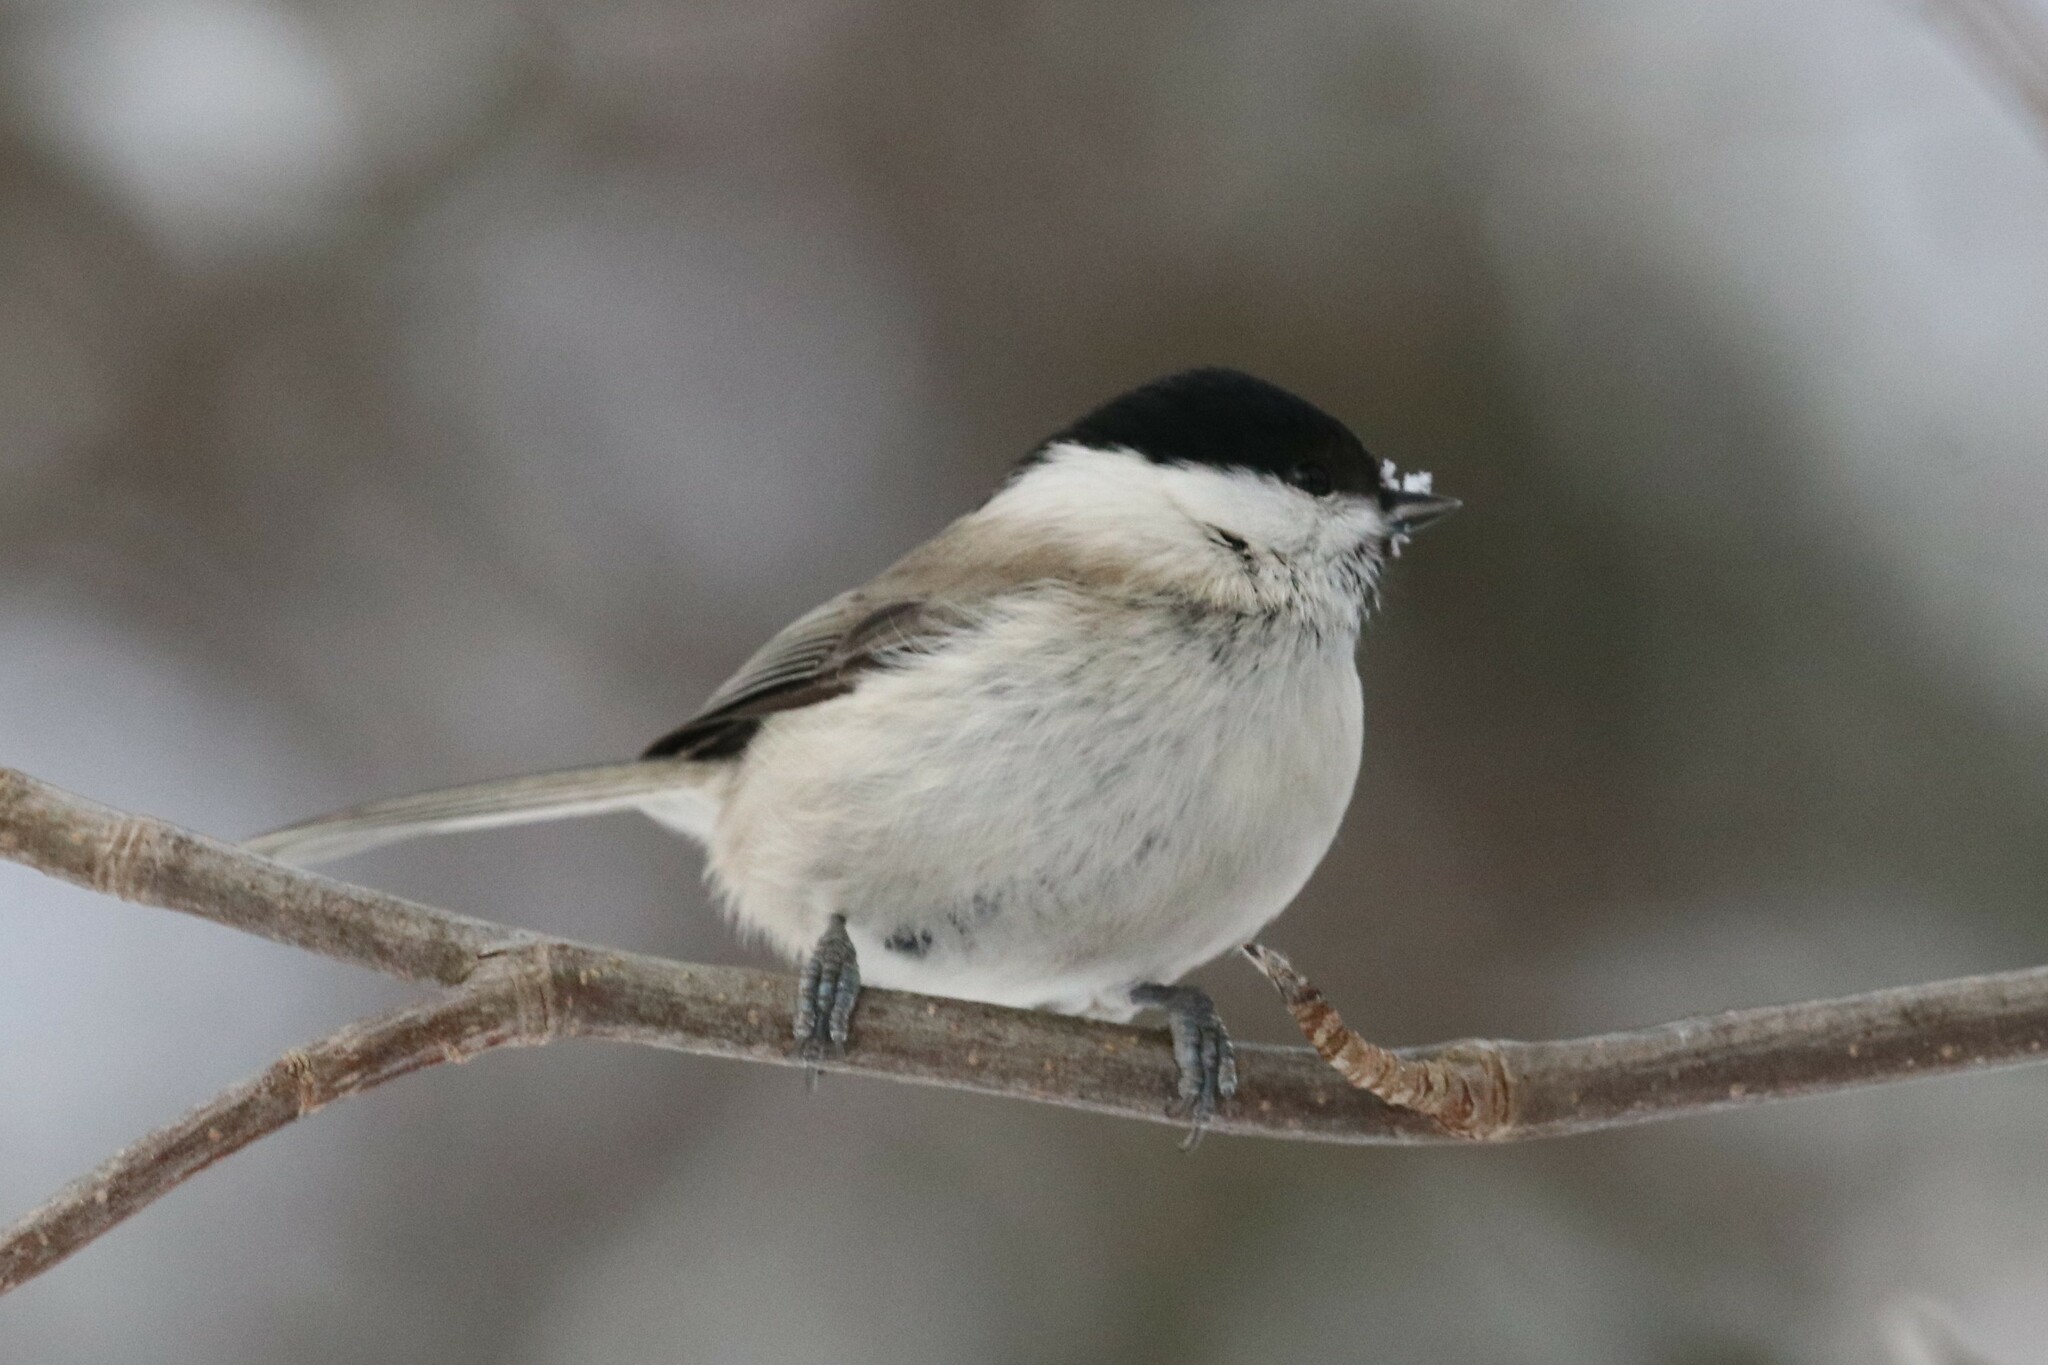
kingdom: Animalia
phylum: Chordata
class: Aves
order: Passeriformes
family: Paridae
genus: Poecile
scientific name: Poecile palustris
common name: Marsh tit
